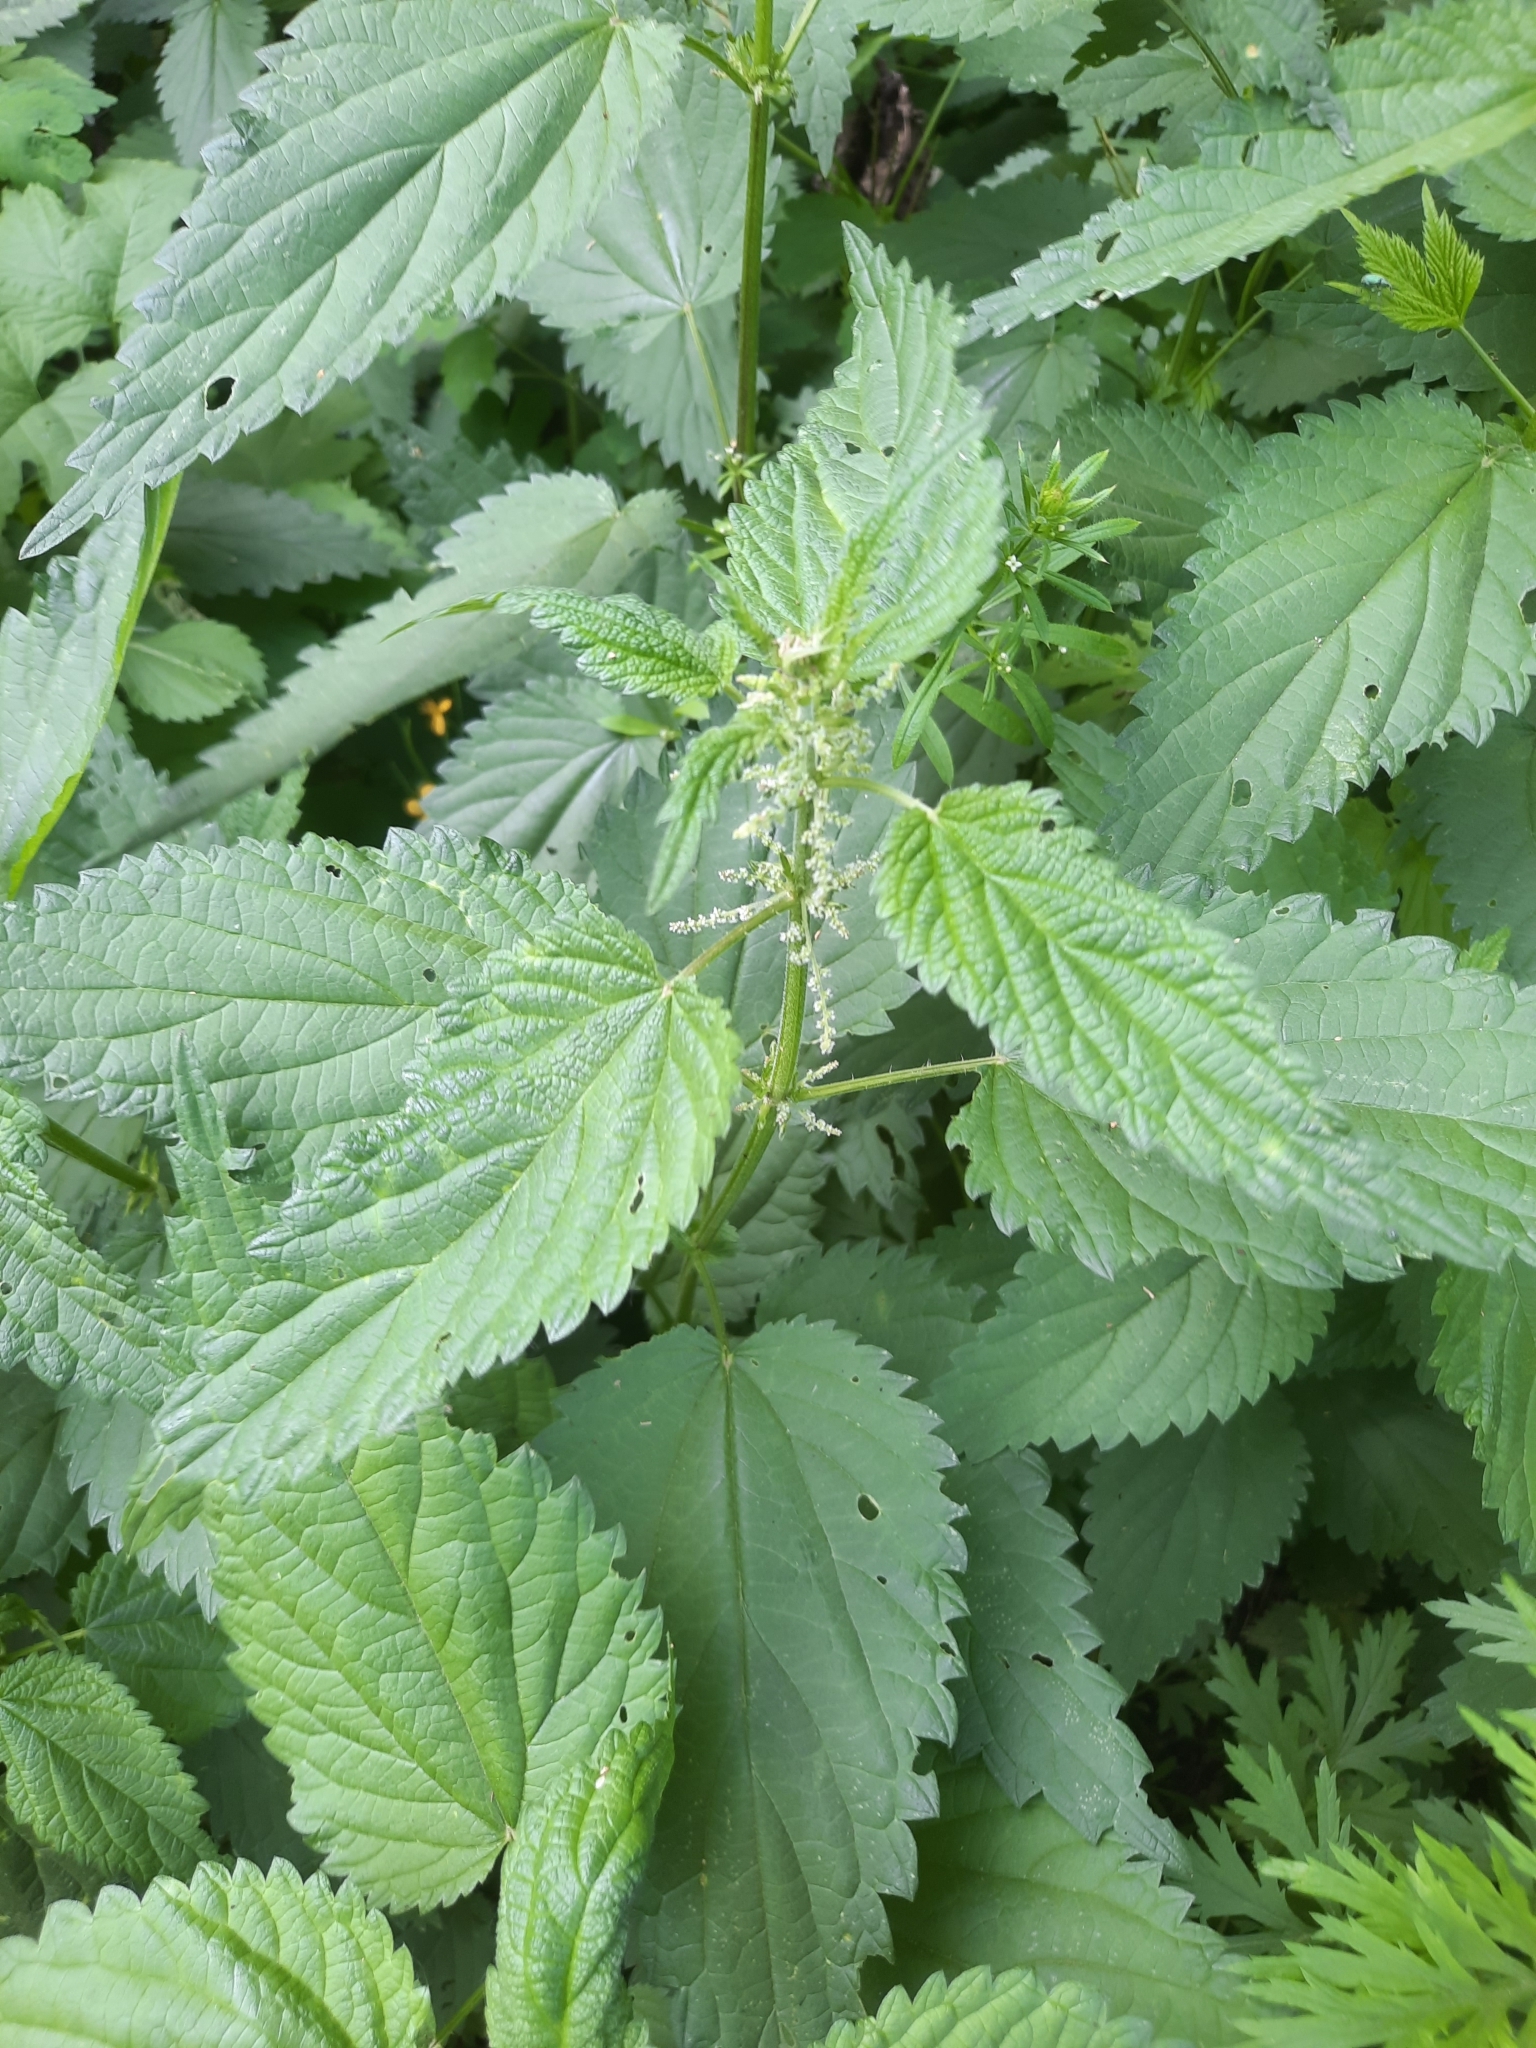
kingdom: Plantae
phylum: Tracheophyta
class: Magnoliopsida
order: Rosales
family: Urticaceae
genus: Urtica
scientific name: Urtica dioica
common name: Common nettle
